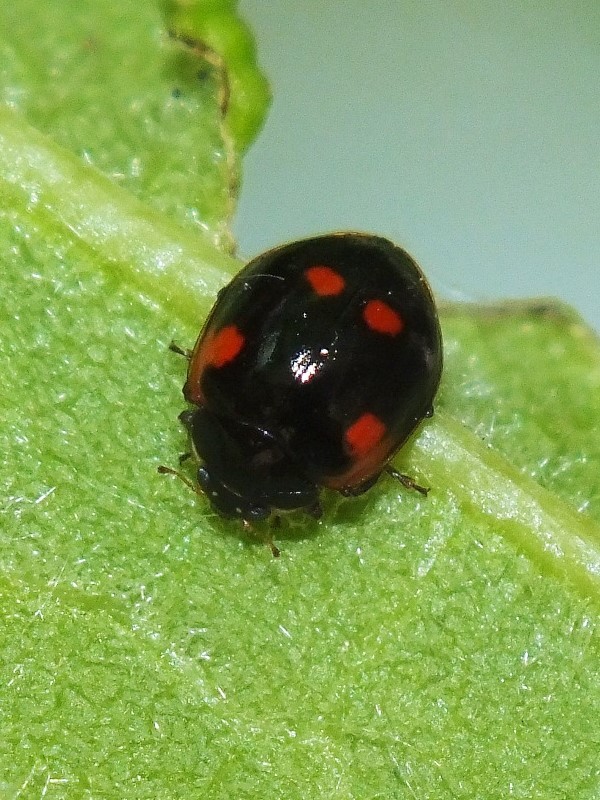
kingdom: Animalia
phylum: Arthropoda
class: Insecta
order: Coleoptera
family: Coccinellidae
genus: Adalia
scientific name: Adalia bipunctata
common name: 2-spot ladybird
